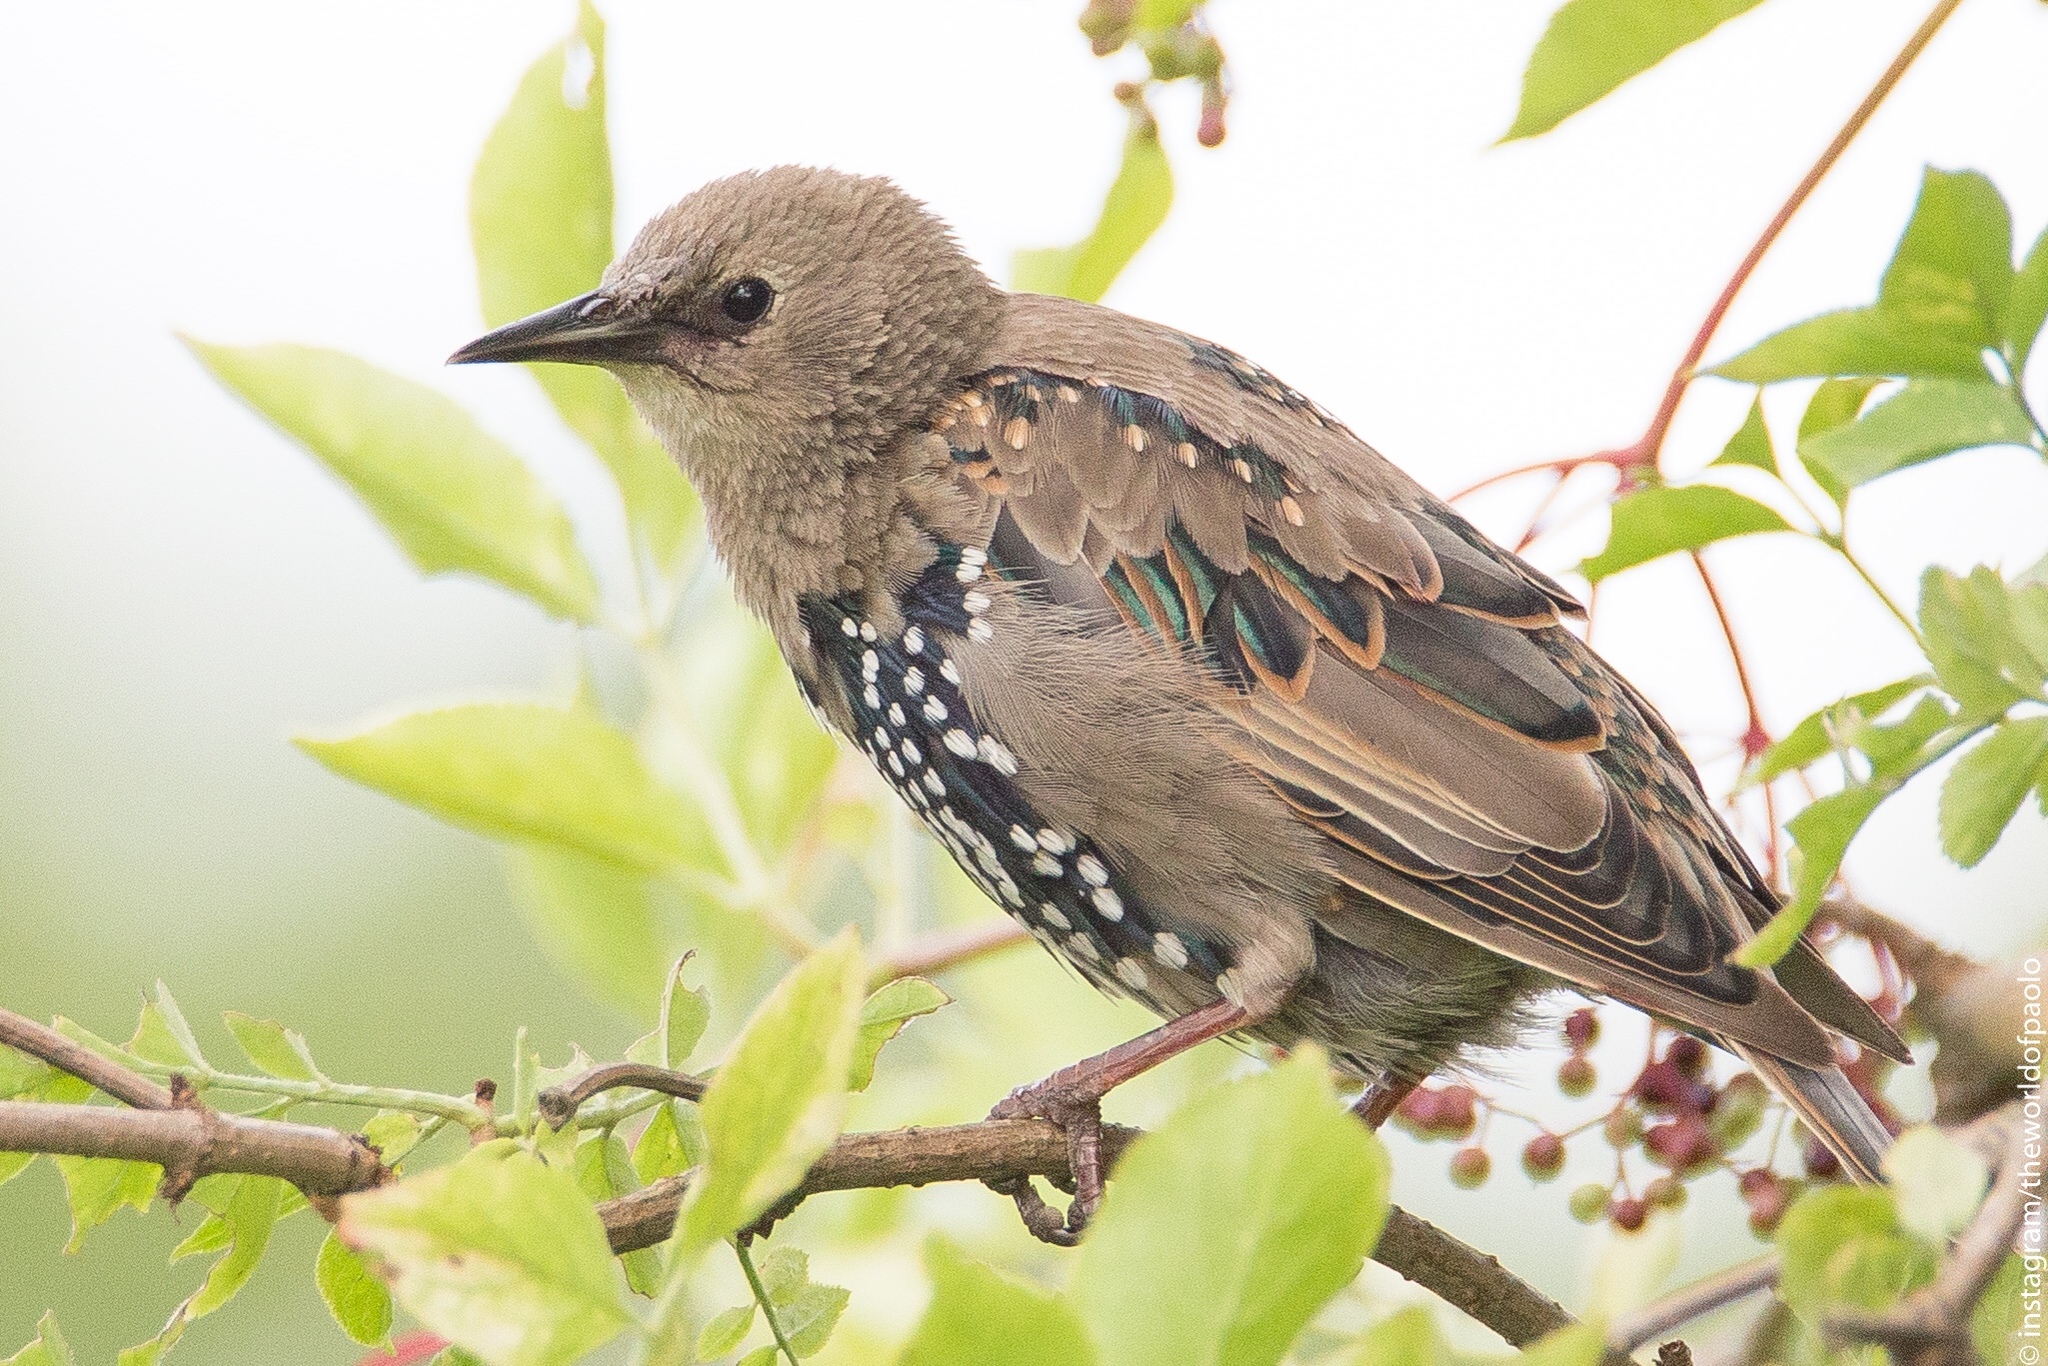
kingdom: Animalia
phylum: Chordata
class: Aves
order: Passeriformes
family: Sturnidae
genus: Sturnus
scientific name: Sturnus vulgaris
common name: Common starling
